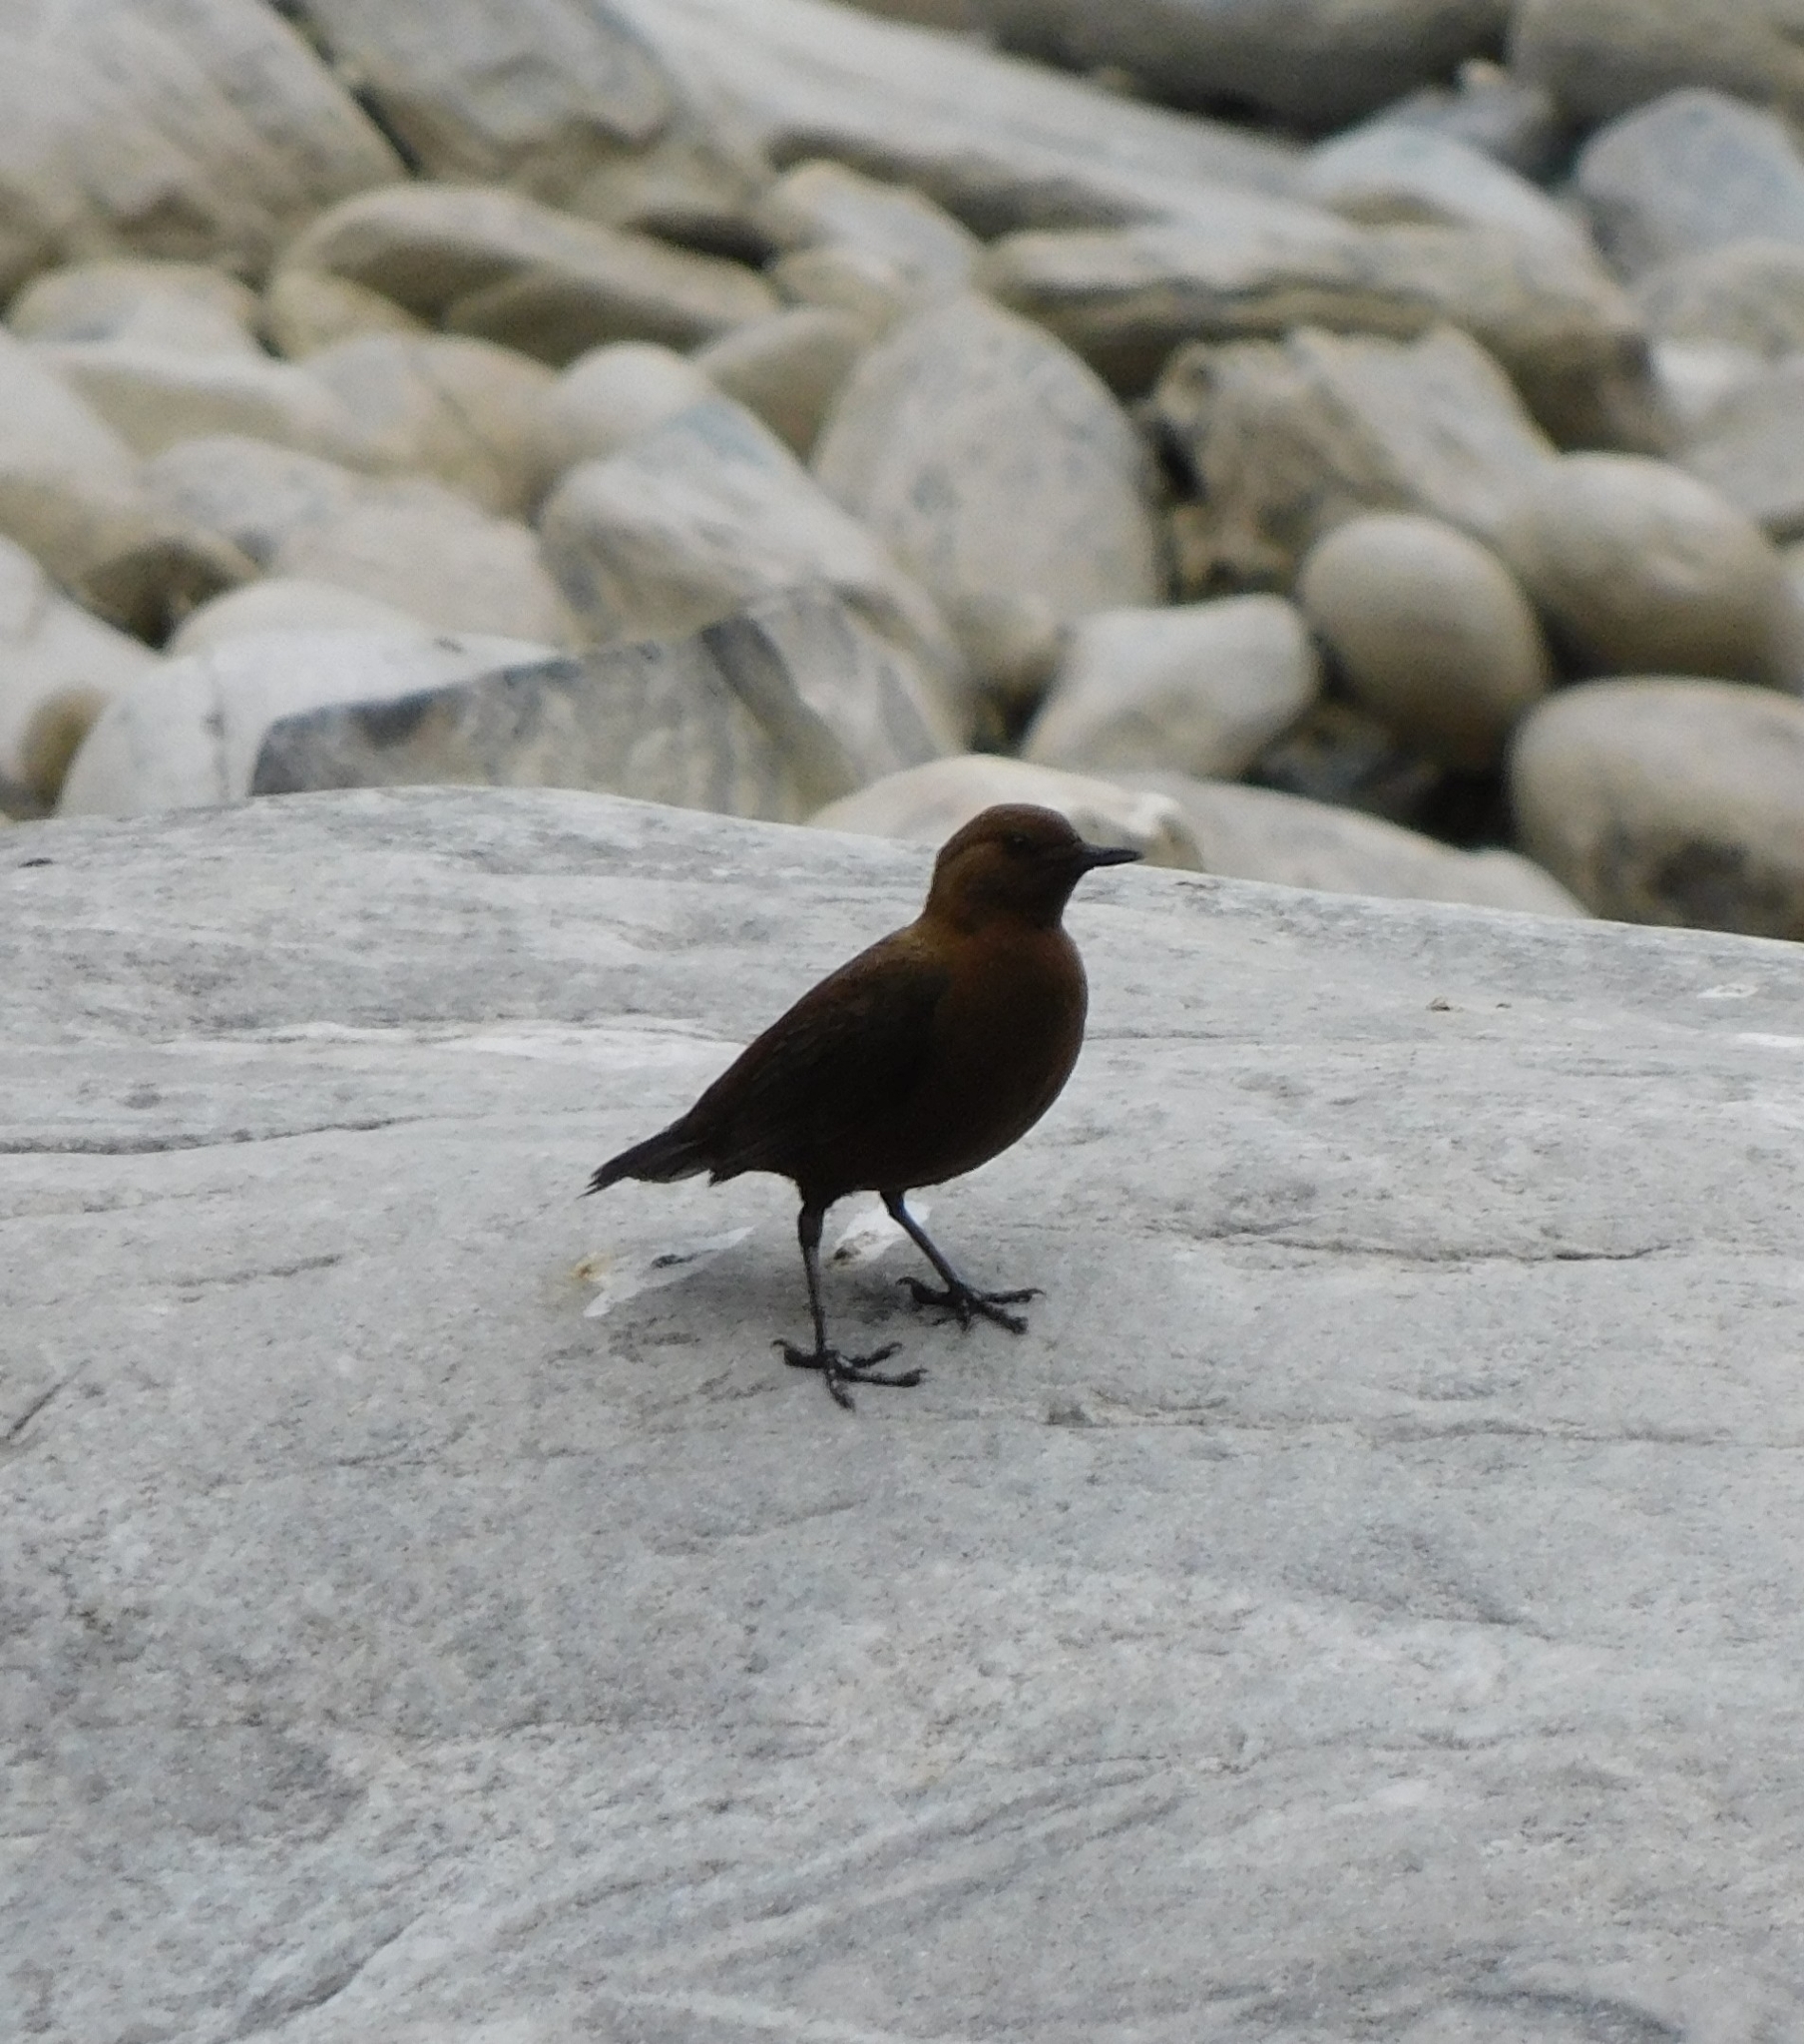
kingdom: Animalia
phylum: Chordata
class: Aves
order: Passeriformes
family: Cinclidae
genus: Cinclus
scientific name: Cinclus pallasii
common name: Brown dipper
